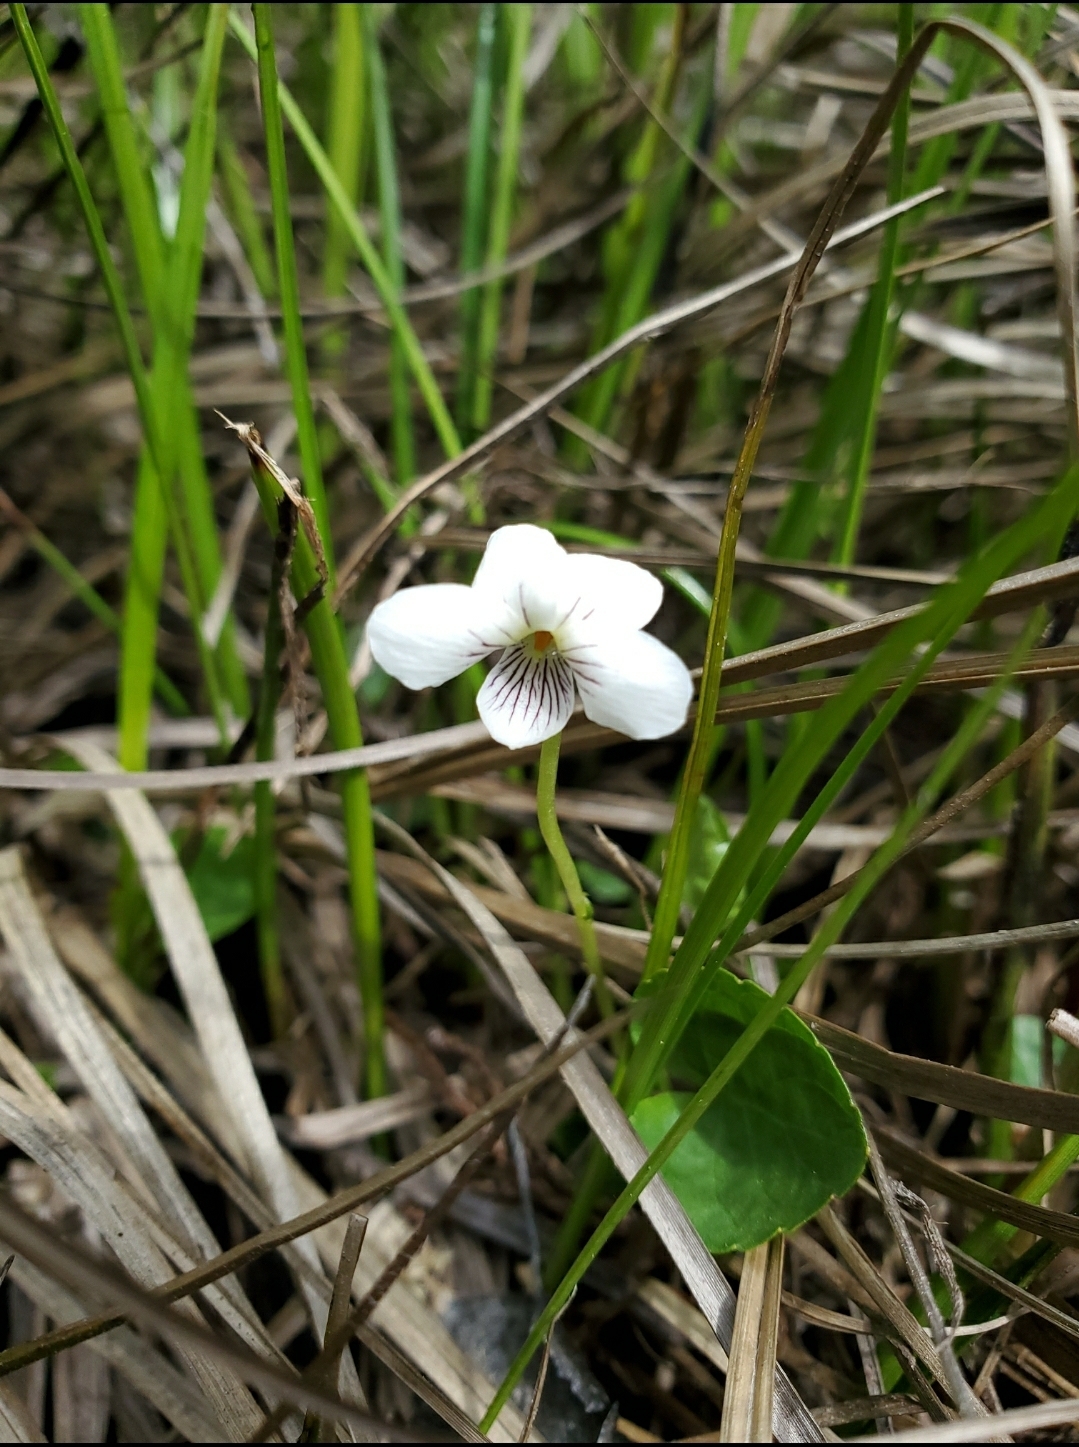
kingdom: Plantae
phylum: Tracheophyta
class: Magnoliopsida
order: Malpighiales
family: Violaceae
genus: Viola
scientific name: Viola minuscula
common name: Northern white violet
